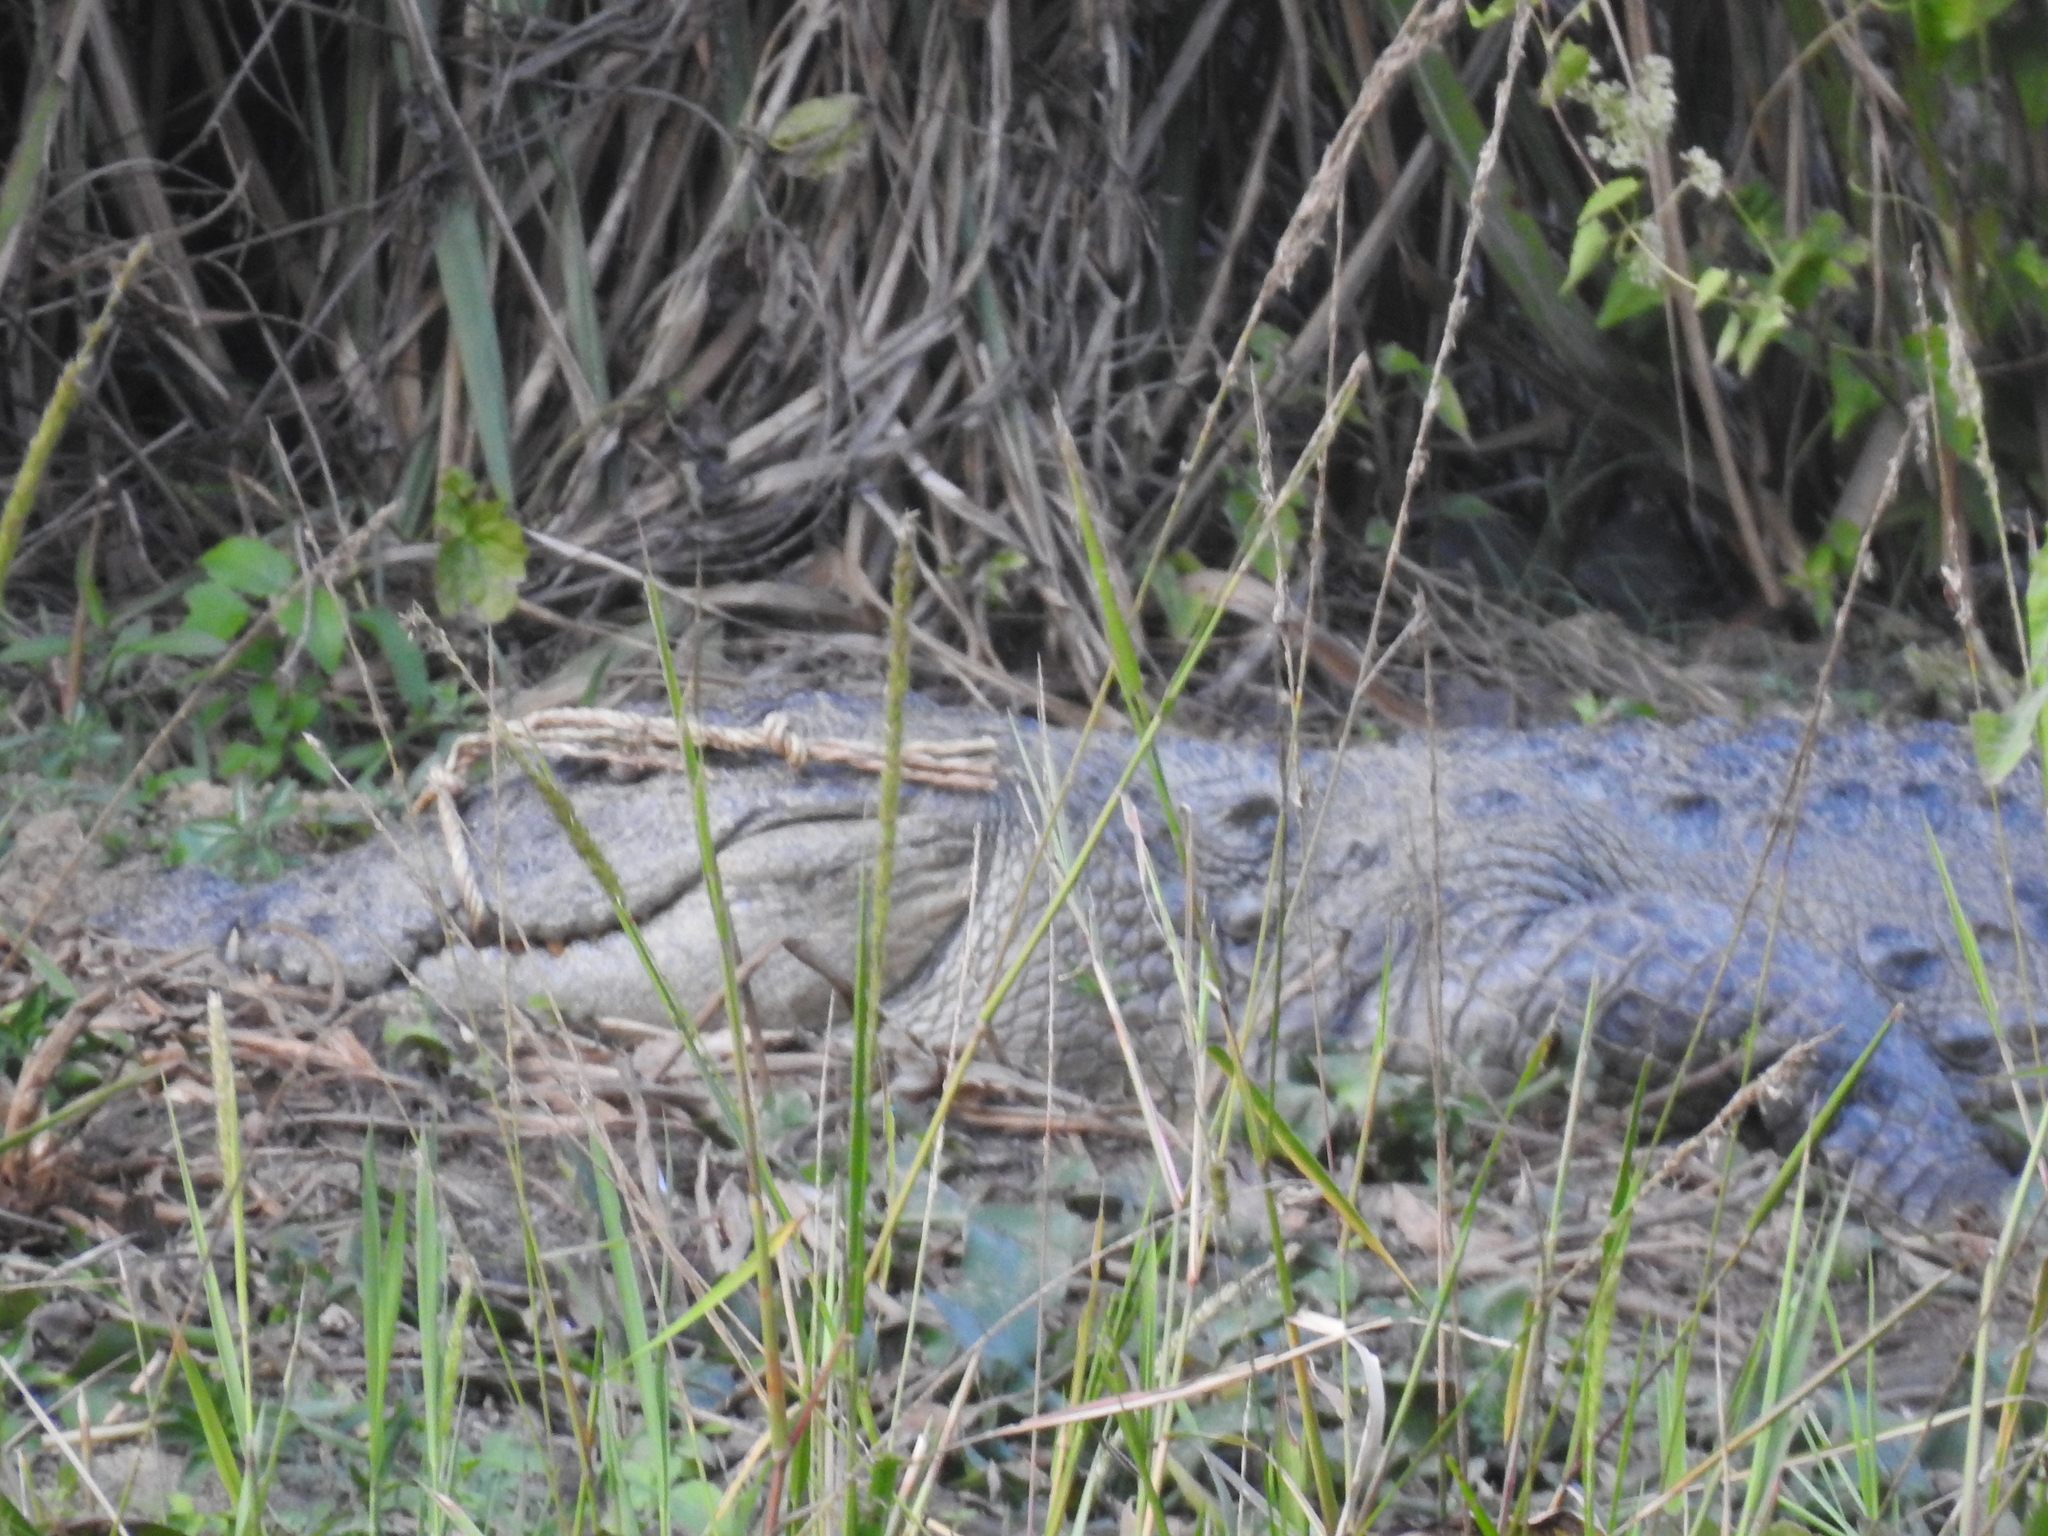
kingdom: Animalia
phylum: Chordata
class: Crocodylia
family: Crocodylidae
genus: Crocodylus
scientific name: Crocodylus palustris
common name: Mugger crocodile
